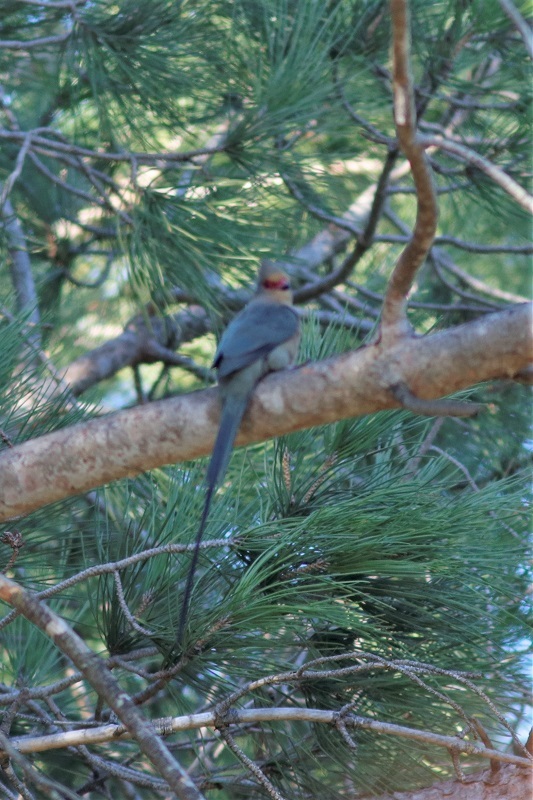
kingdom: Animalia
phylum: Chordata
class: Aves
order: Coliiformes
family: Coliidae
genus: Urocolius
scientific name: Urocolius indicus
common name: Red-faced mousebird
